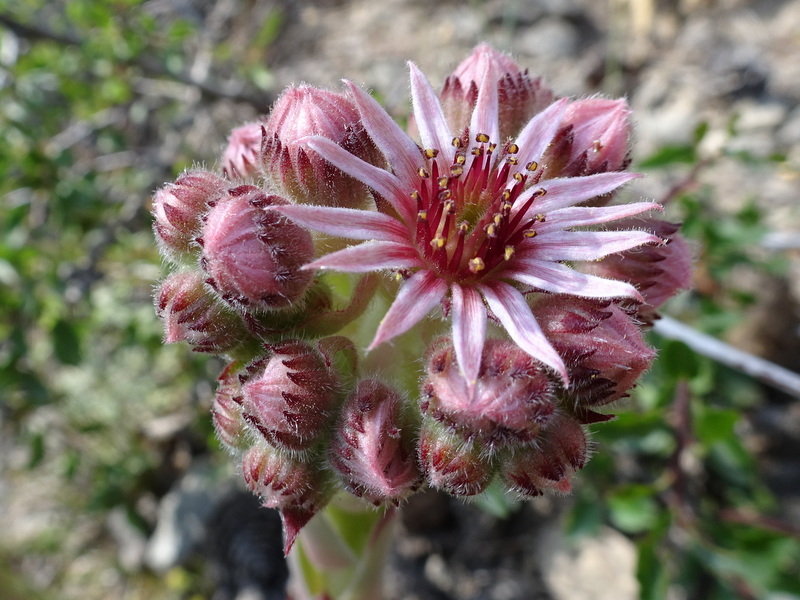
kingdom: Plantae
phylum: Tracheophyta
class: Magnoliopsida
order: Saxifragales
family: Crassulaceae
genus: Sempervivum
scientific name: Sempervivum tectorum
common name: House-leek
